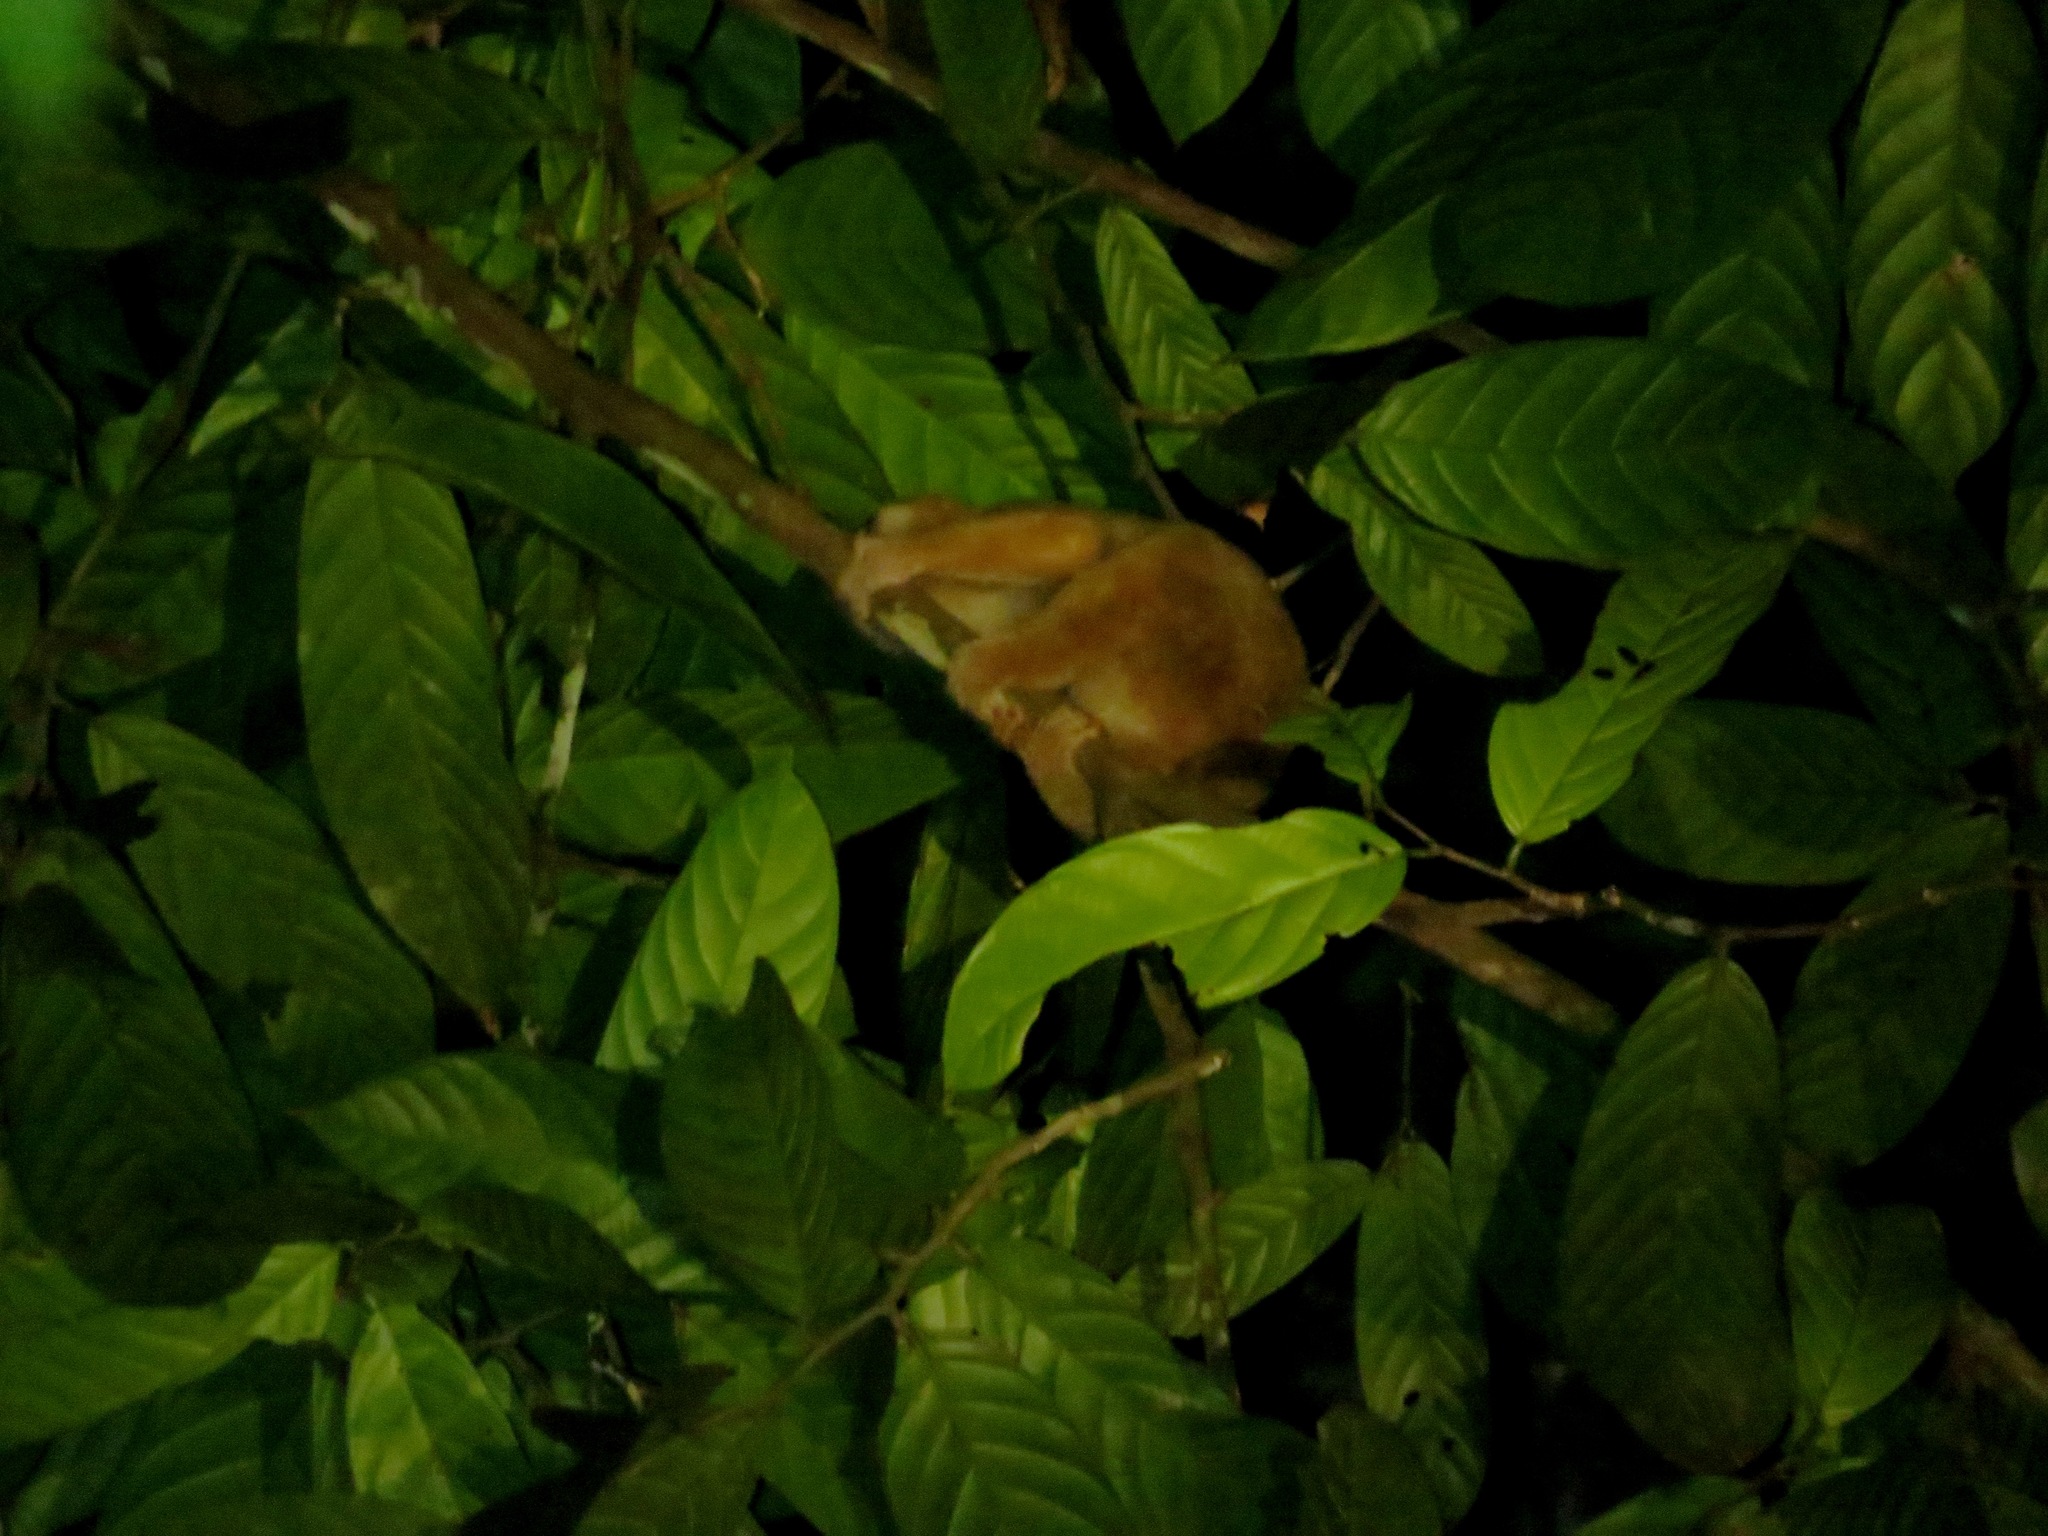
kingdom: Animalia
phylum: Chordata
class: Mammalia
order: Primates
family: Lorisidae
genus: Nycticebus
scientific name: Nycticebus menagensis
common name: Philippine slow loris
